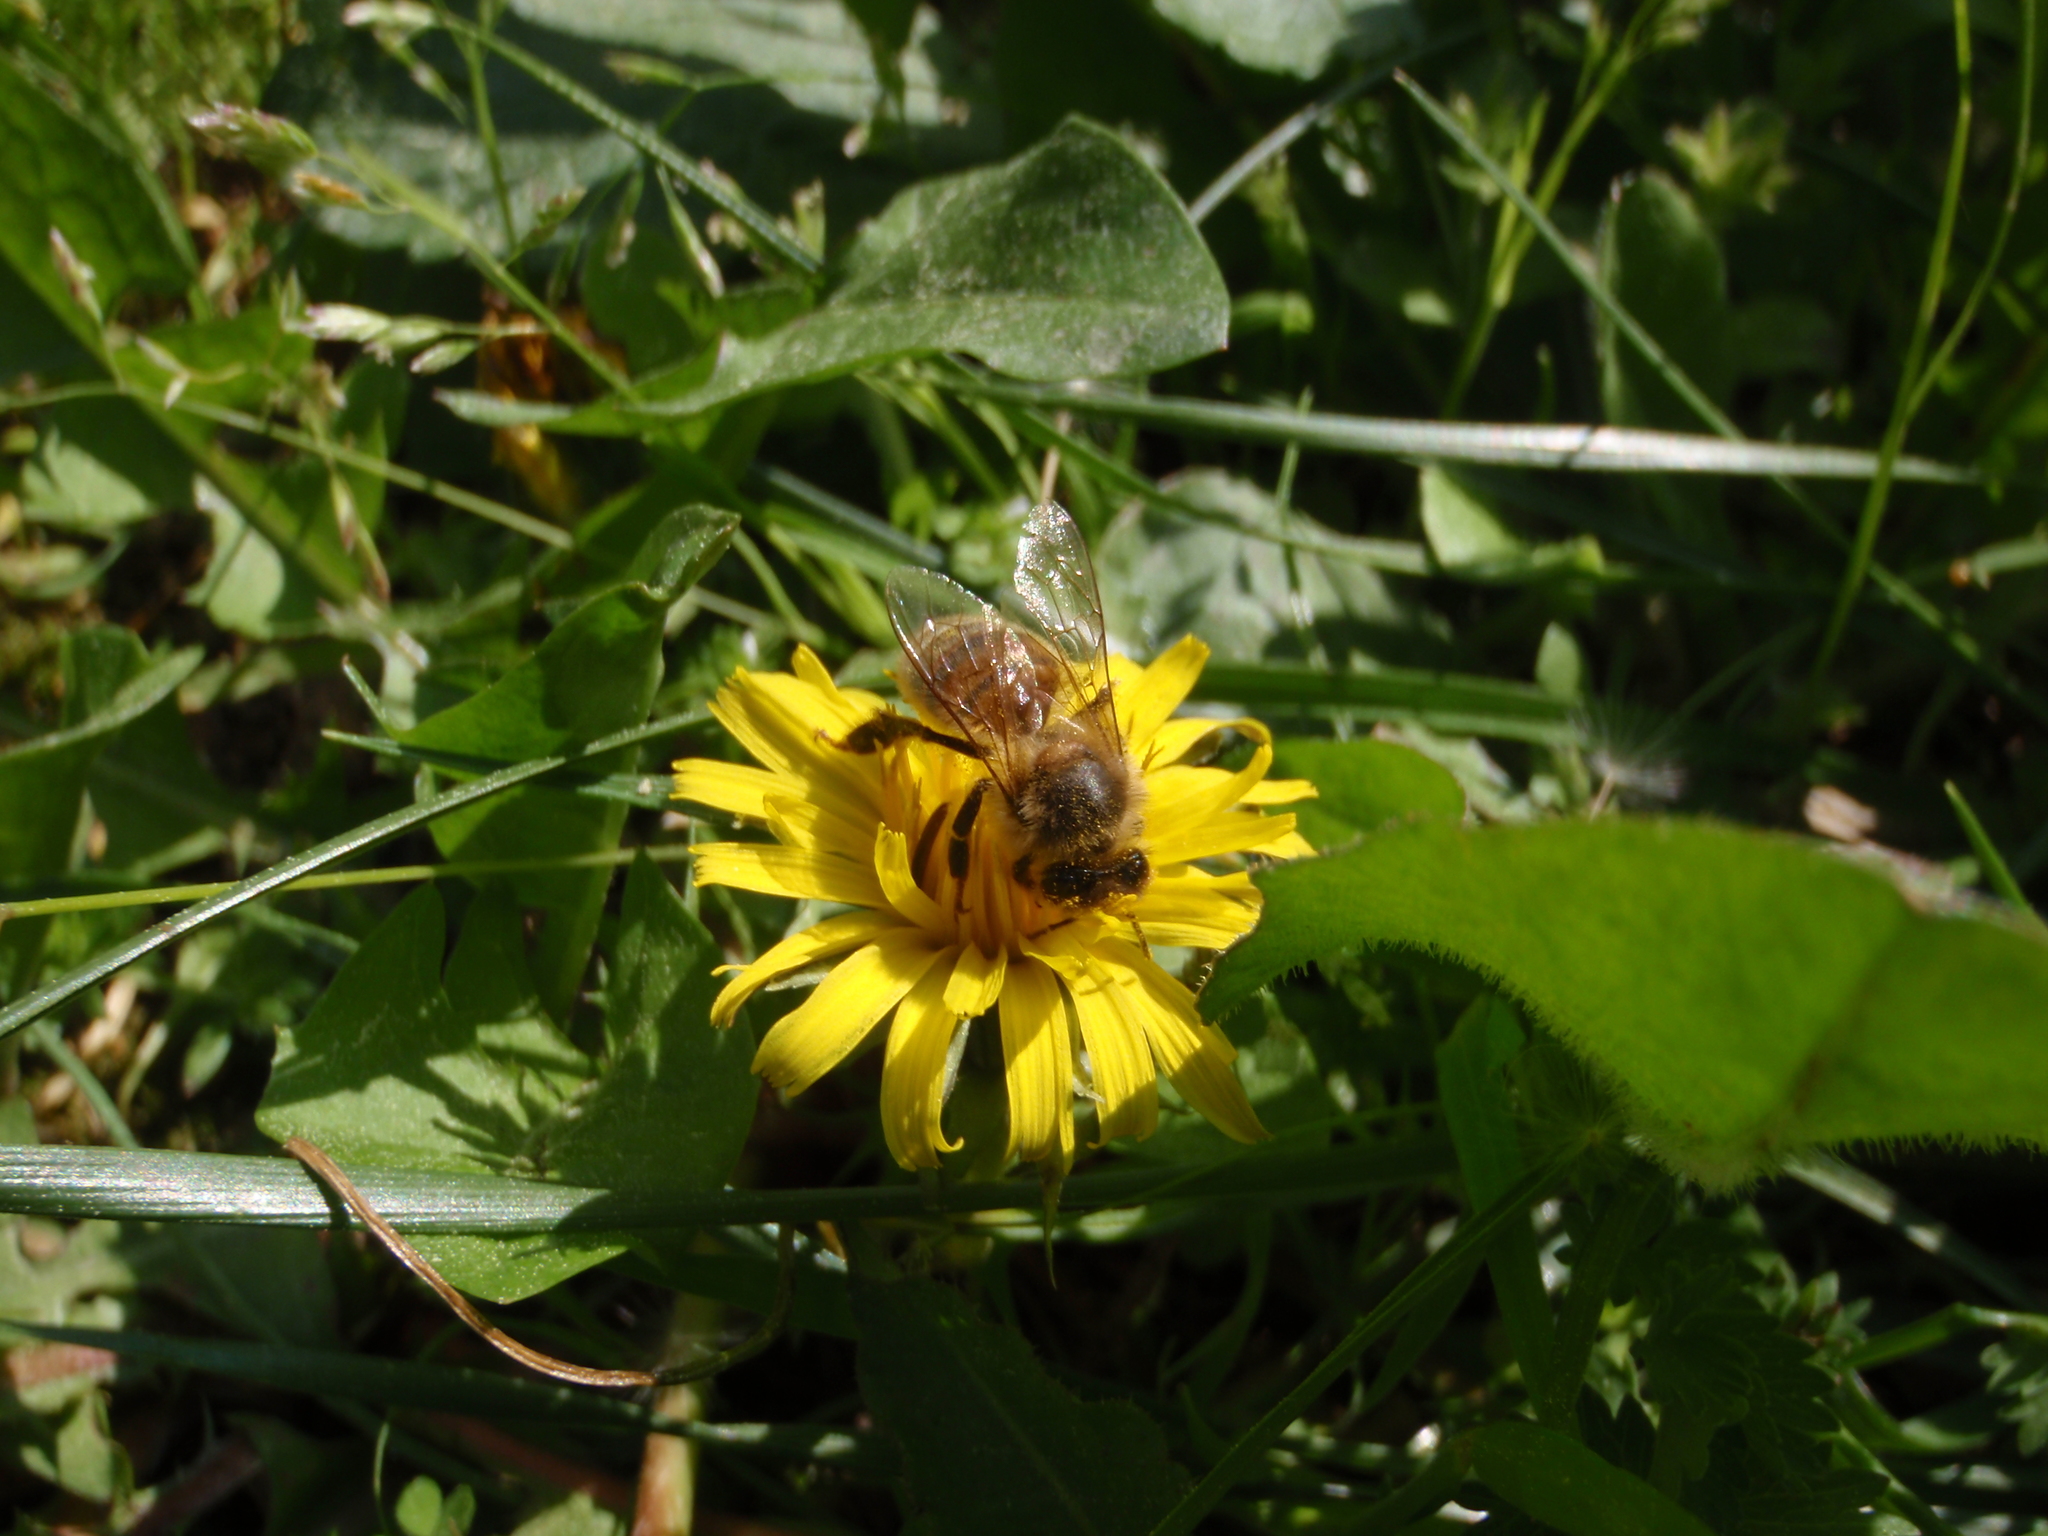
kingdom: Animalia
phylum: Arthropoda
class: Insecta
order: Hymenoptera
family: Apidae
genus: Apis
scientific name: Apis mellifera
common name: Honey bee
